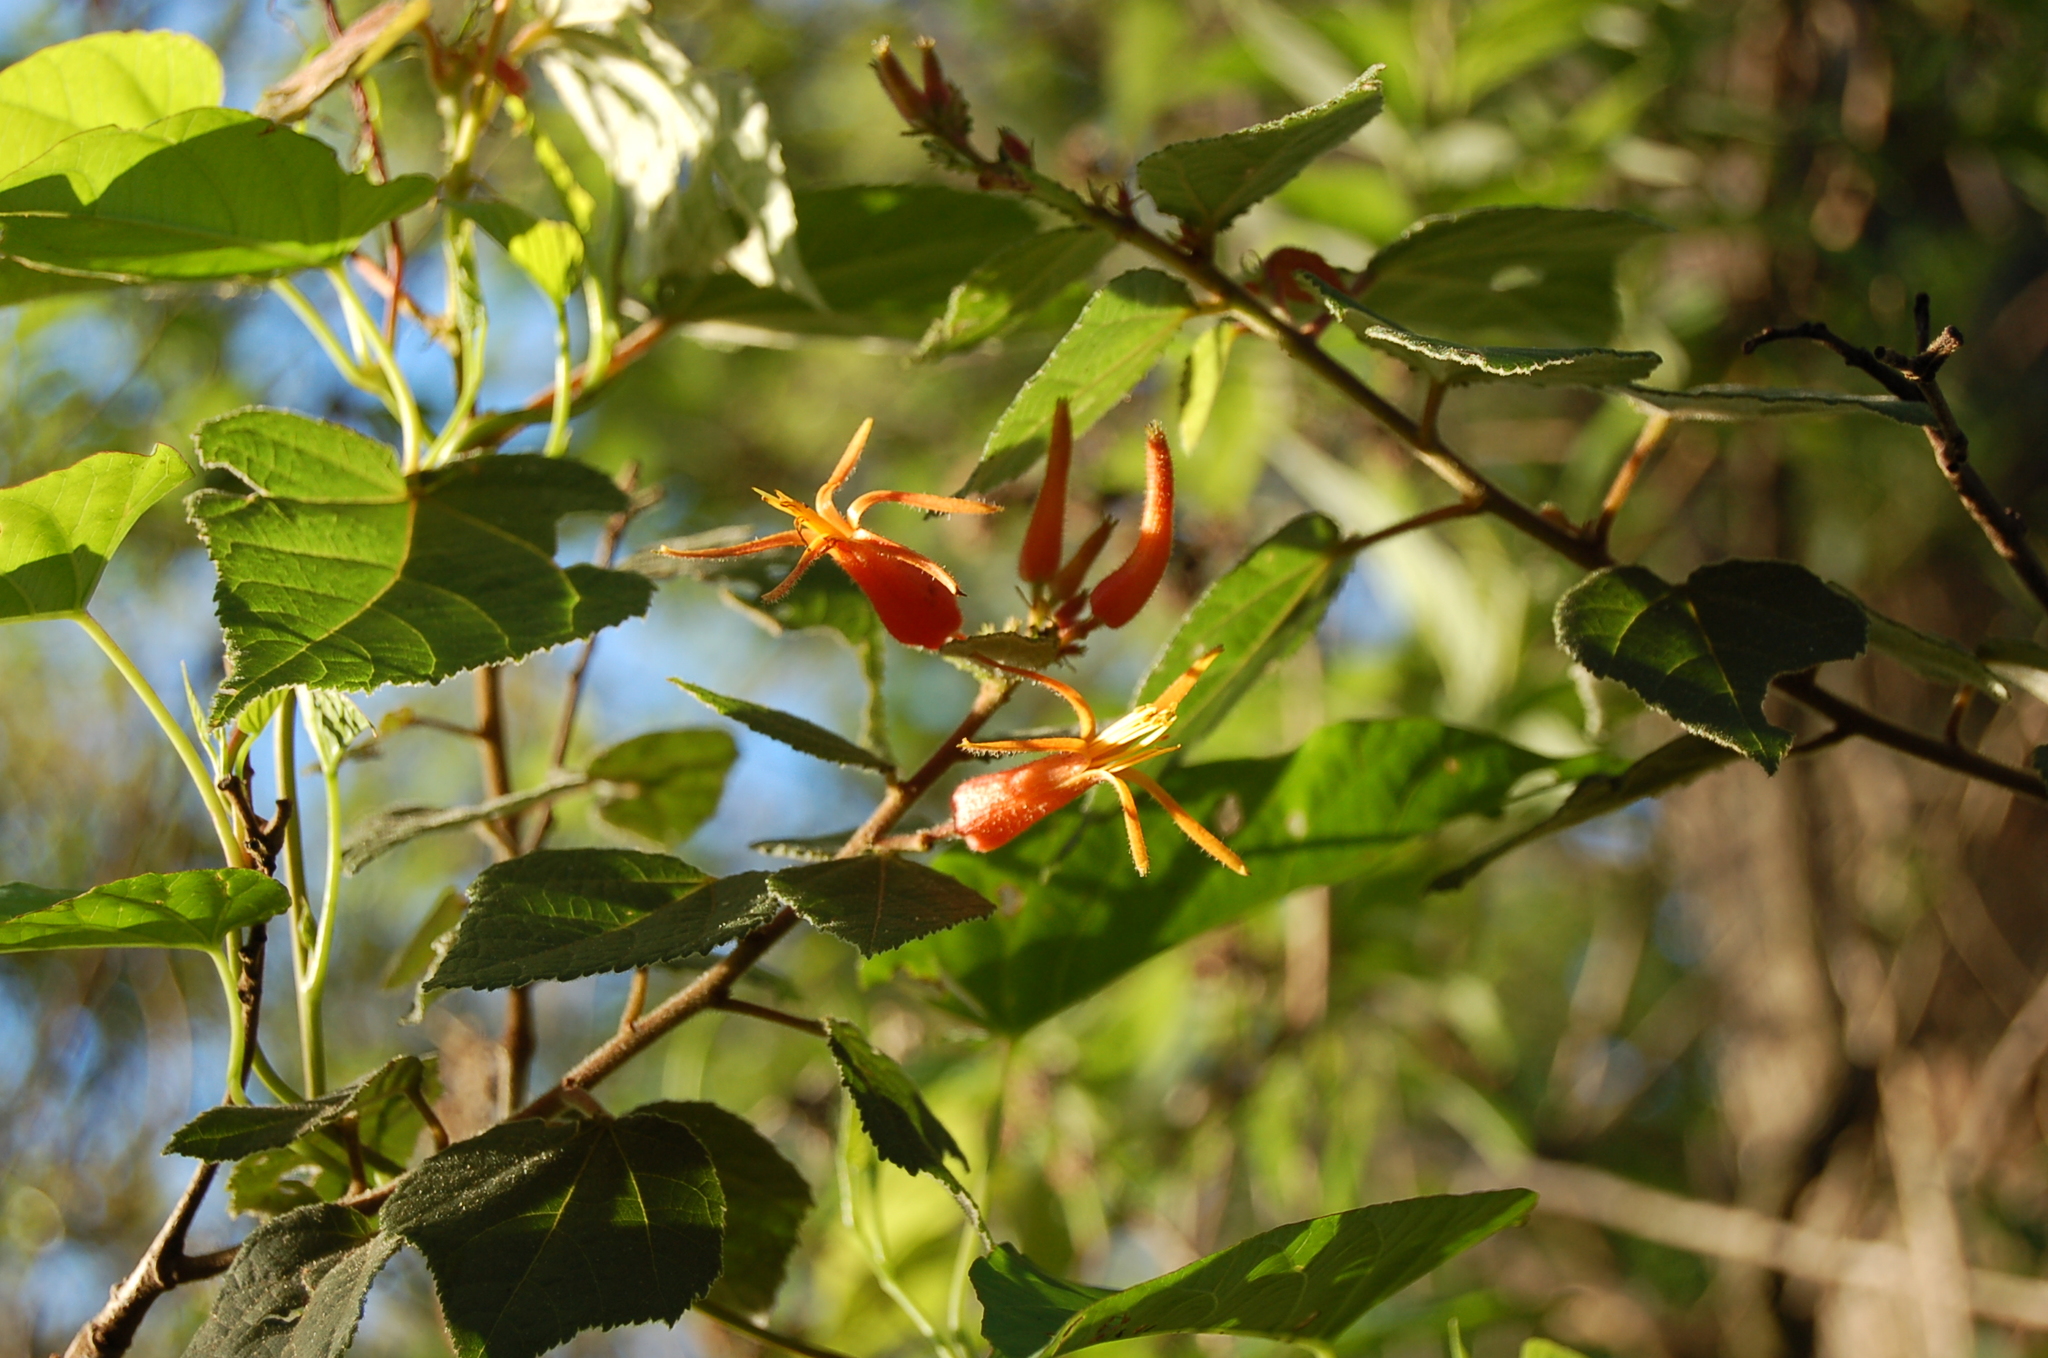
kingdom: Plantae
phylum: Tracheophyta
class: Magnoliopsida
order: Malvales
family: Malvaceae
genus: Triumfetta
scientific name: Triumfetta speciosa
